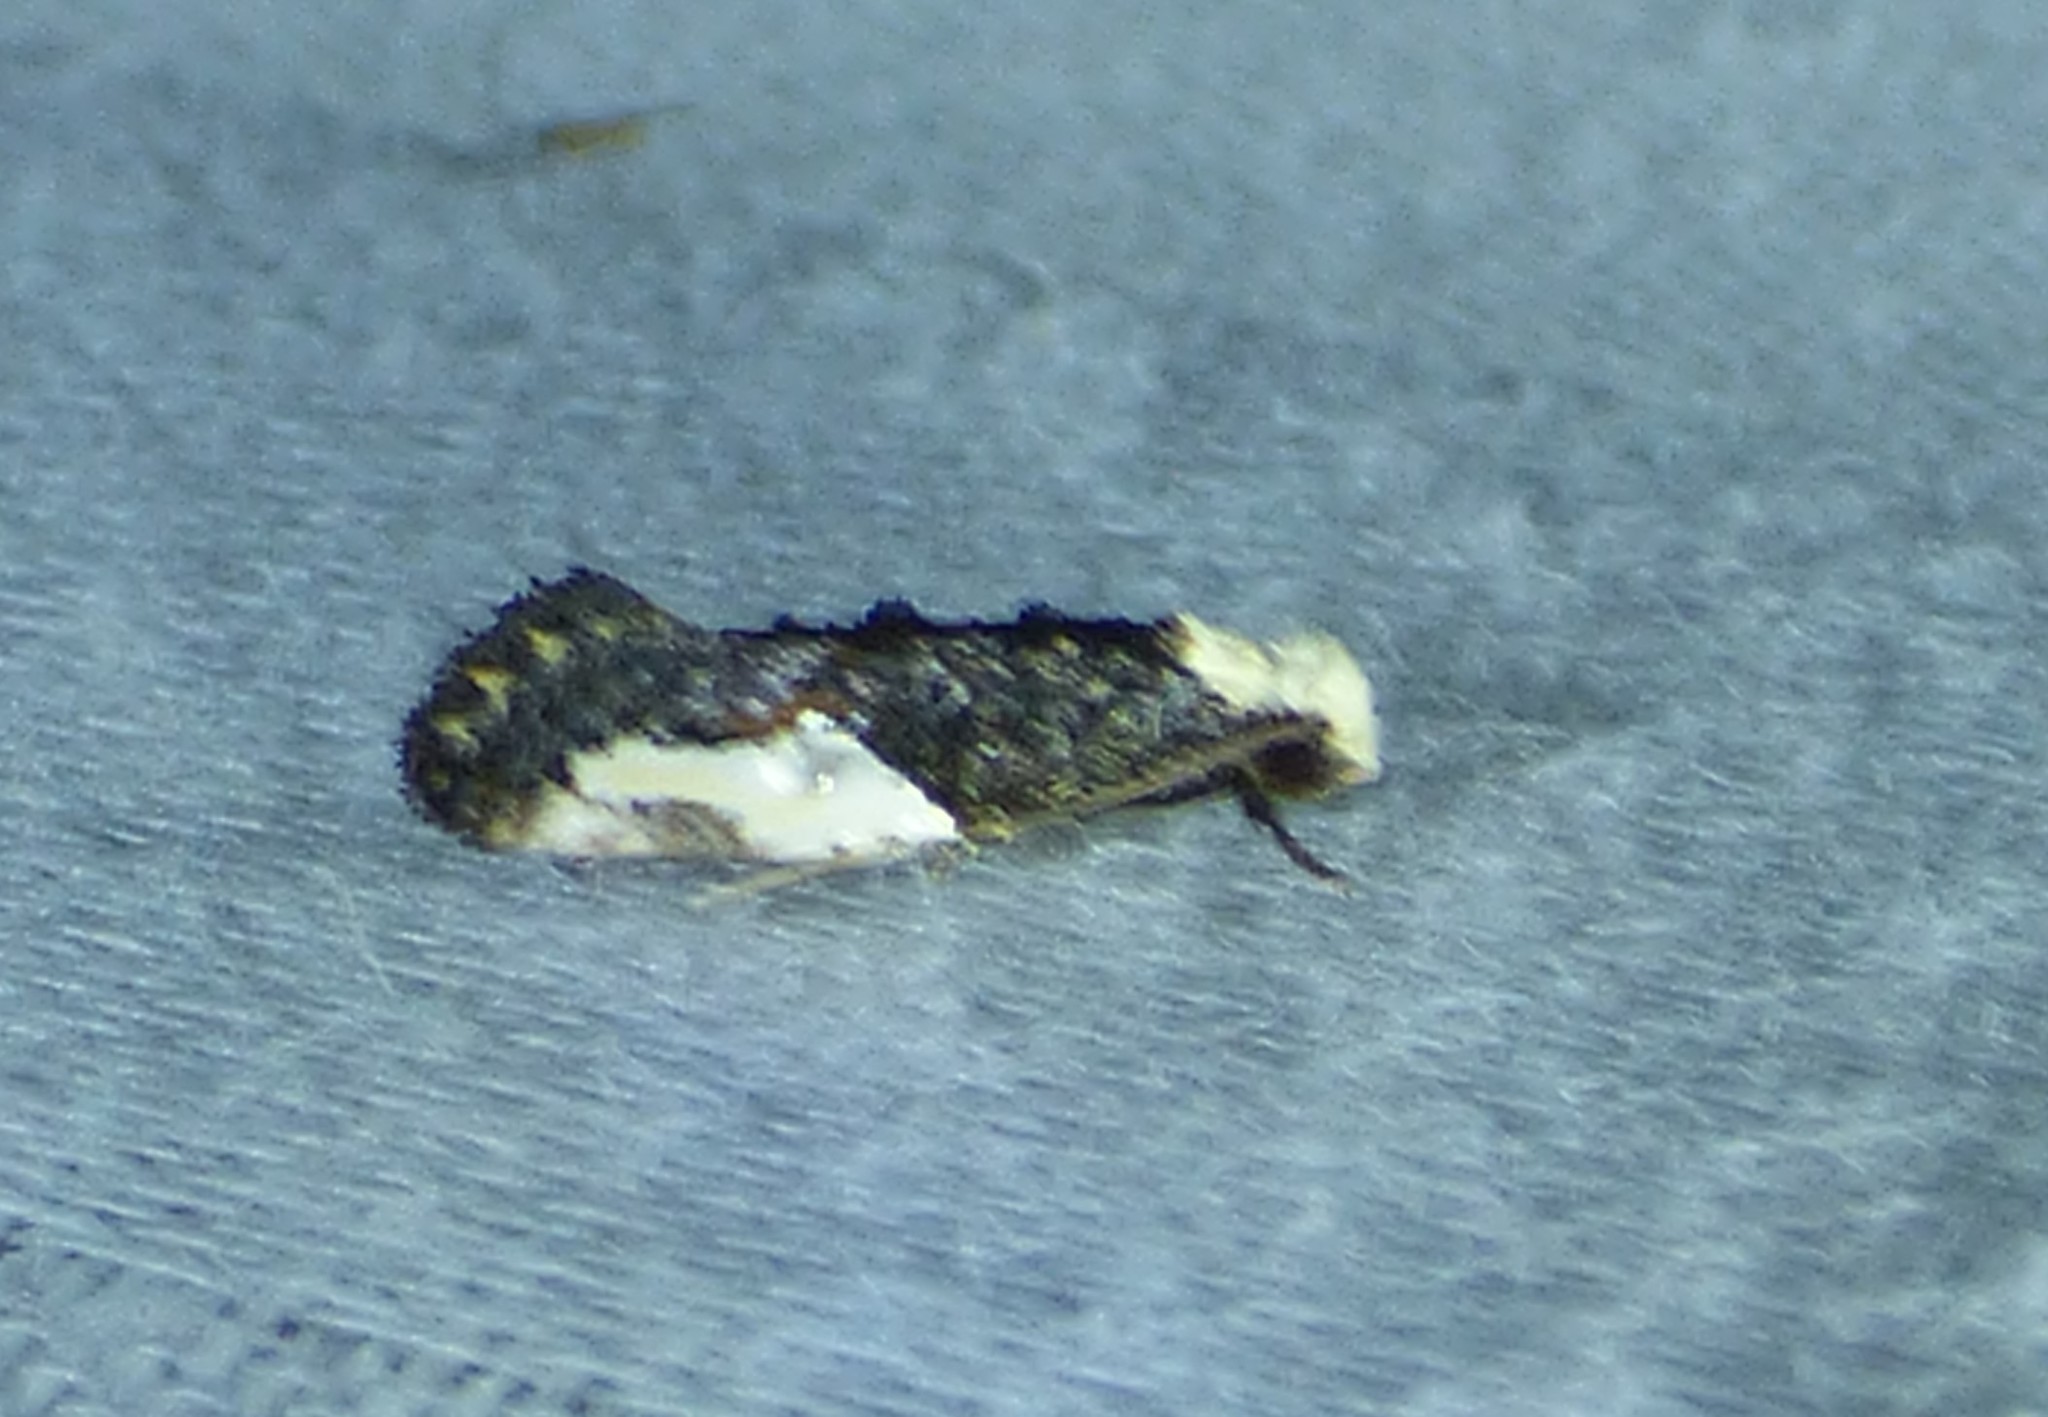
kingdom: Animalia
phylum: Arthropoda
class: Insecta
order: Lepidoptera
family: Tineidae
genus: Monopis
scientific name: Monopis longella
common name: Pavlovski's monopis moth
